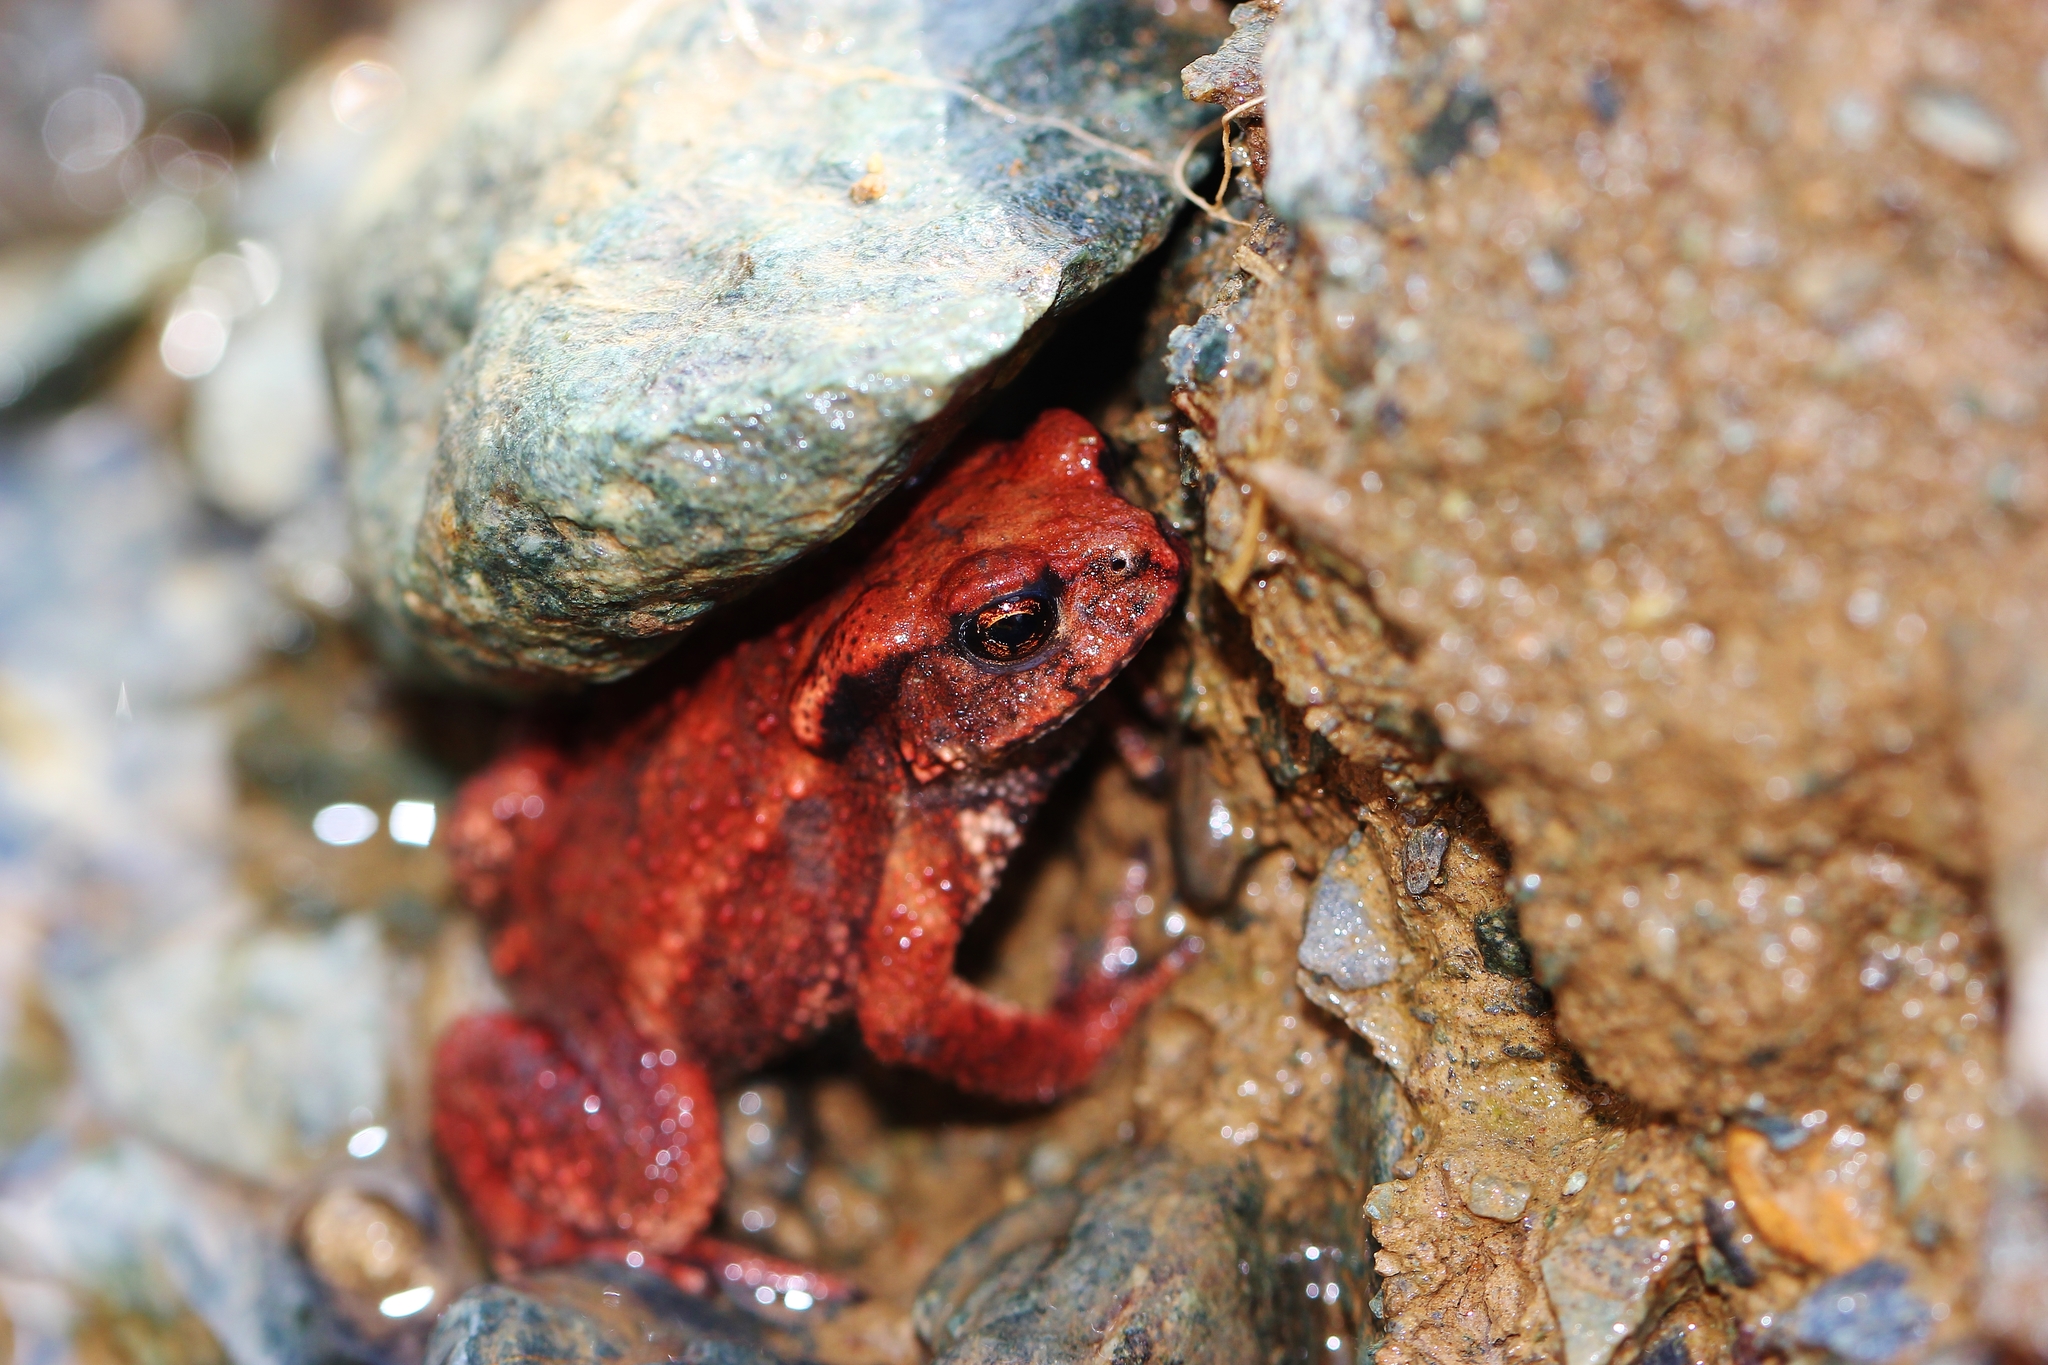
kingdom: Animalia
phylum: Chordata
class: Amphibia
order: Anura
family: Bufonidae
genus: Bufo
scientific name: Bufo verrucosissimus
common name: Caucasian toad
